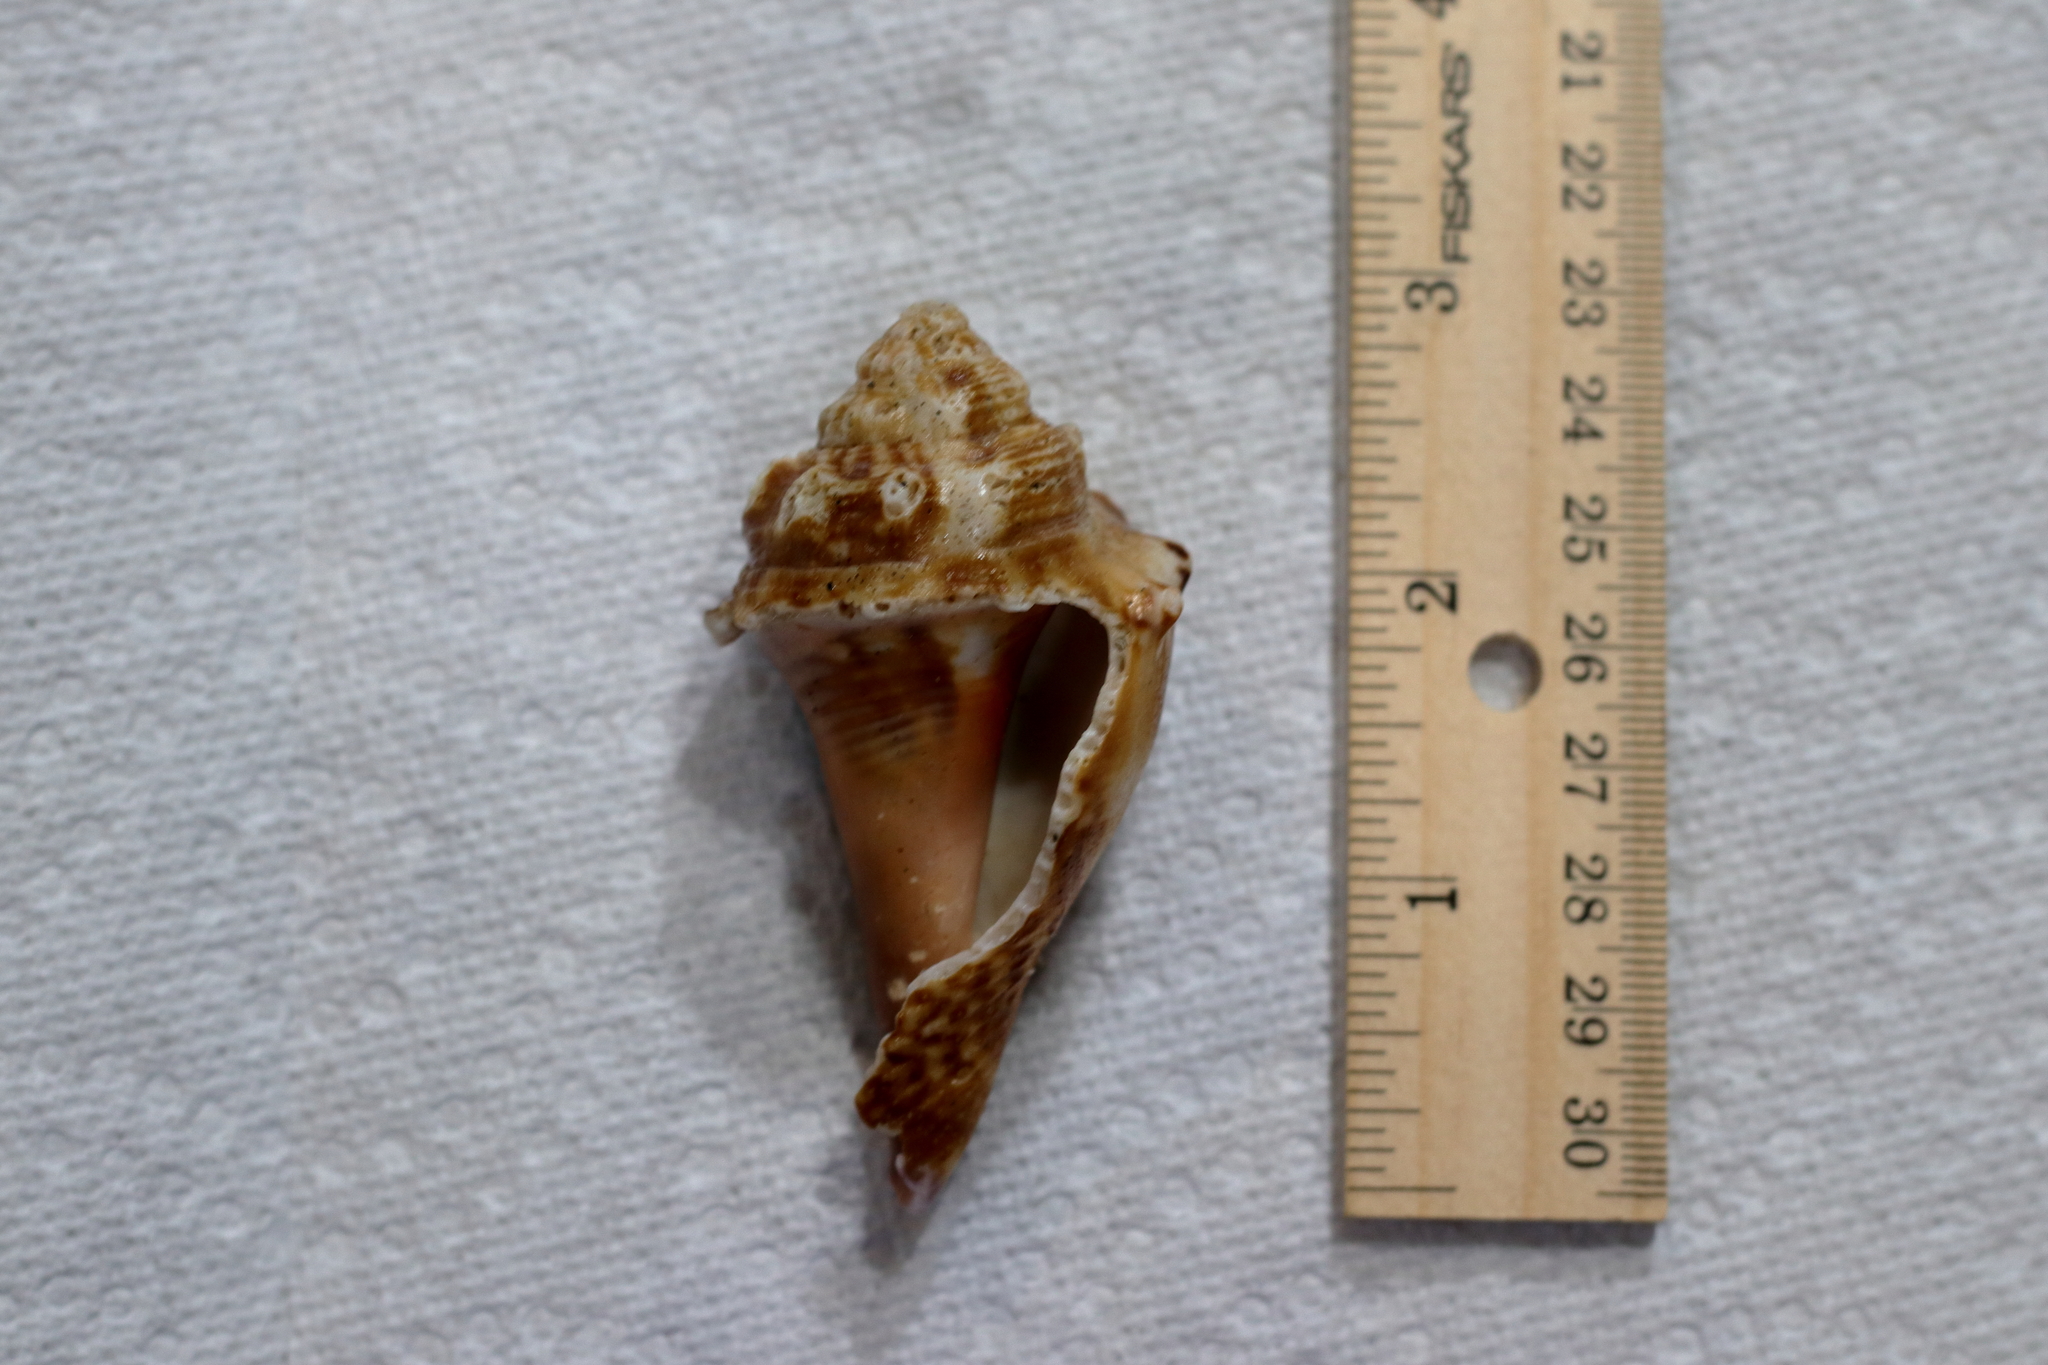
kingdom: Animalia
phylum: Mollusca
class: Gastropoda
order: Littorinimorpha
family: Strombidae
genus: Strombus
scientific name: Strombus alatus
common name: Florida fighting conch
